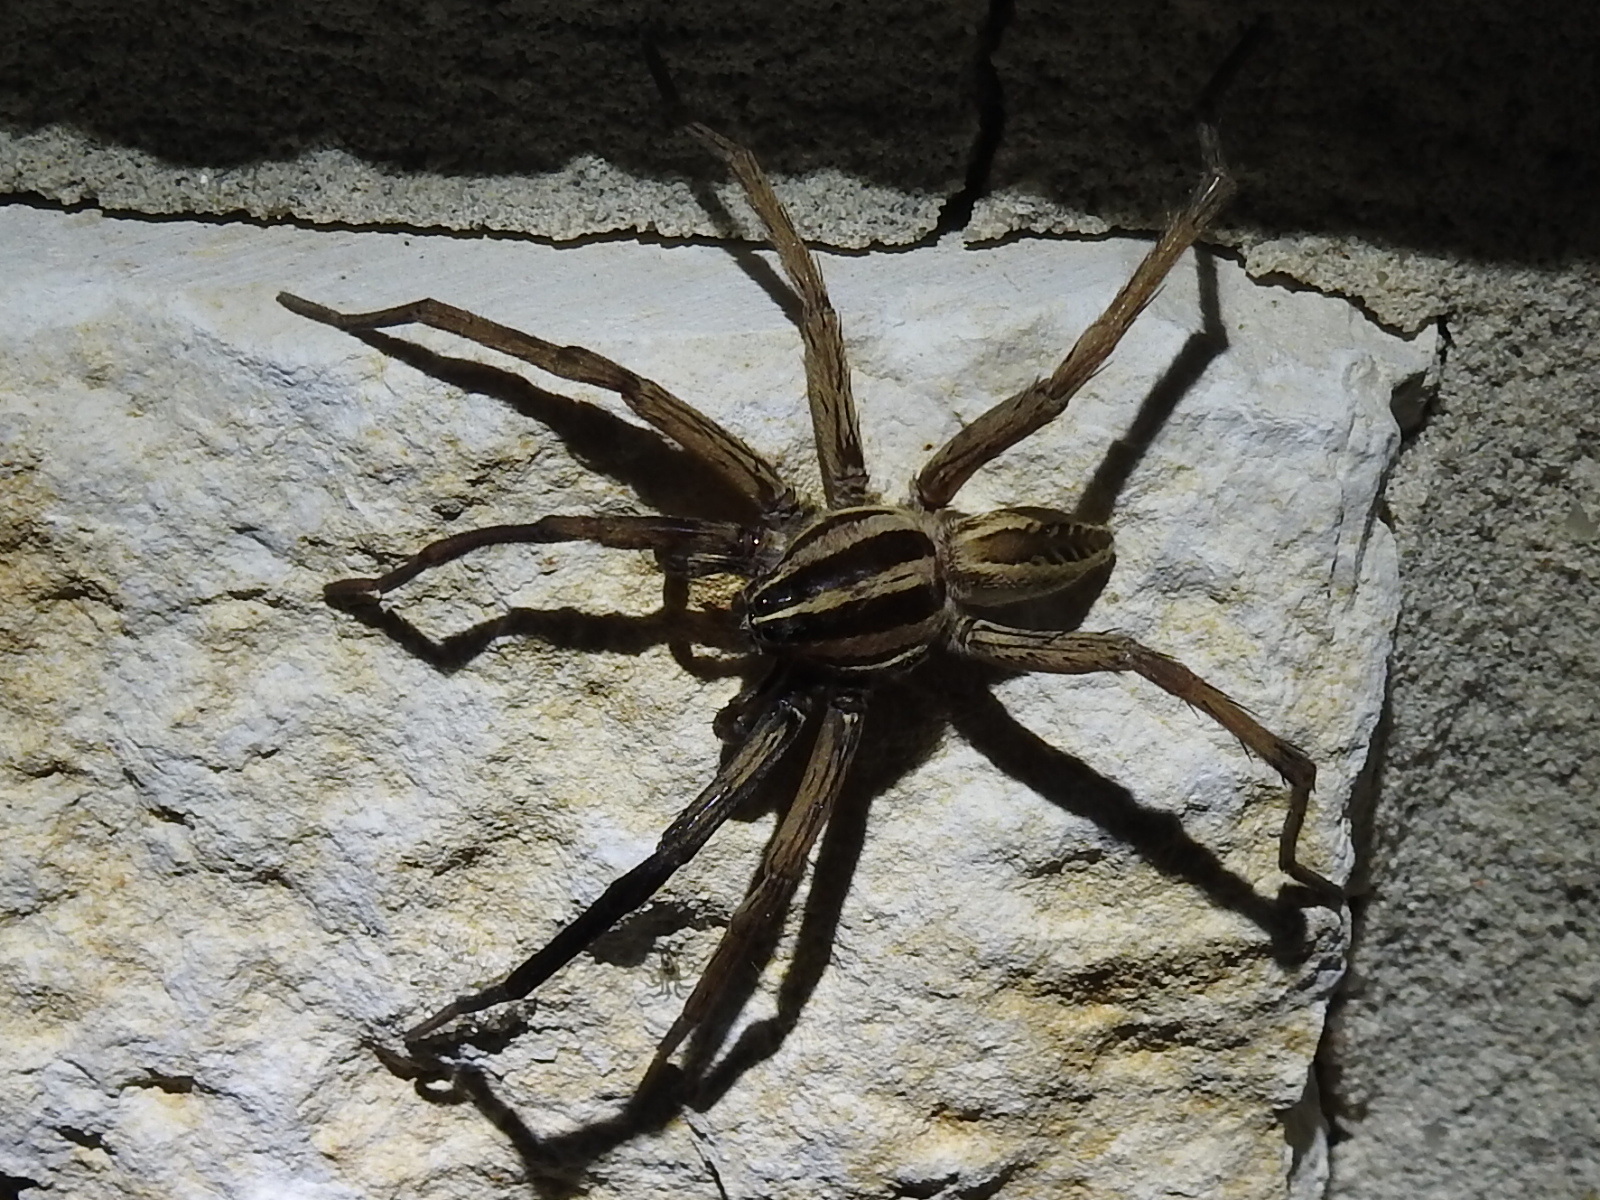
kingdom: Animalia
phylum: Arthropoda
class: Arachnida
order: Araneae
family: Lycosidae
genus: Rabidosa
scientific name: Rabidosa rabida
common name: Rabid wolf spider
